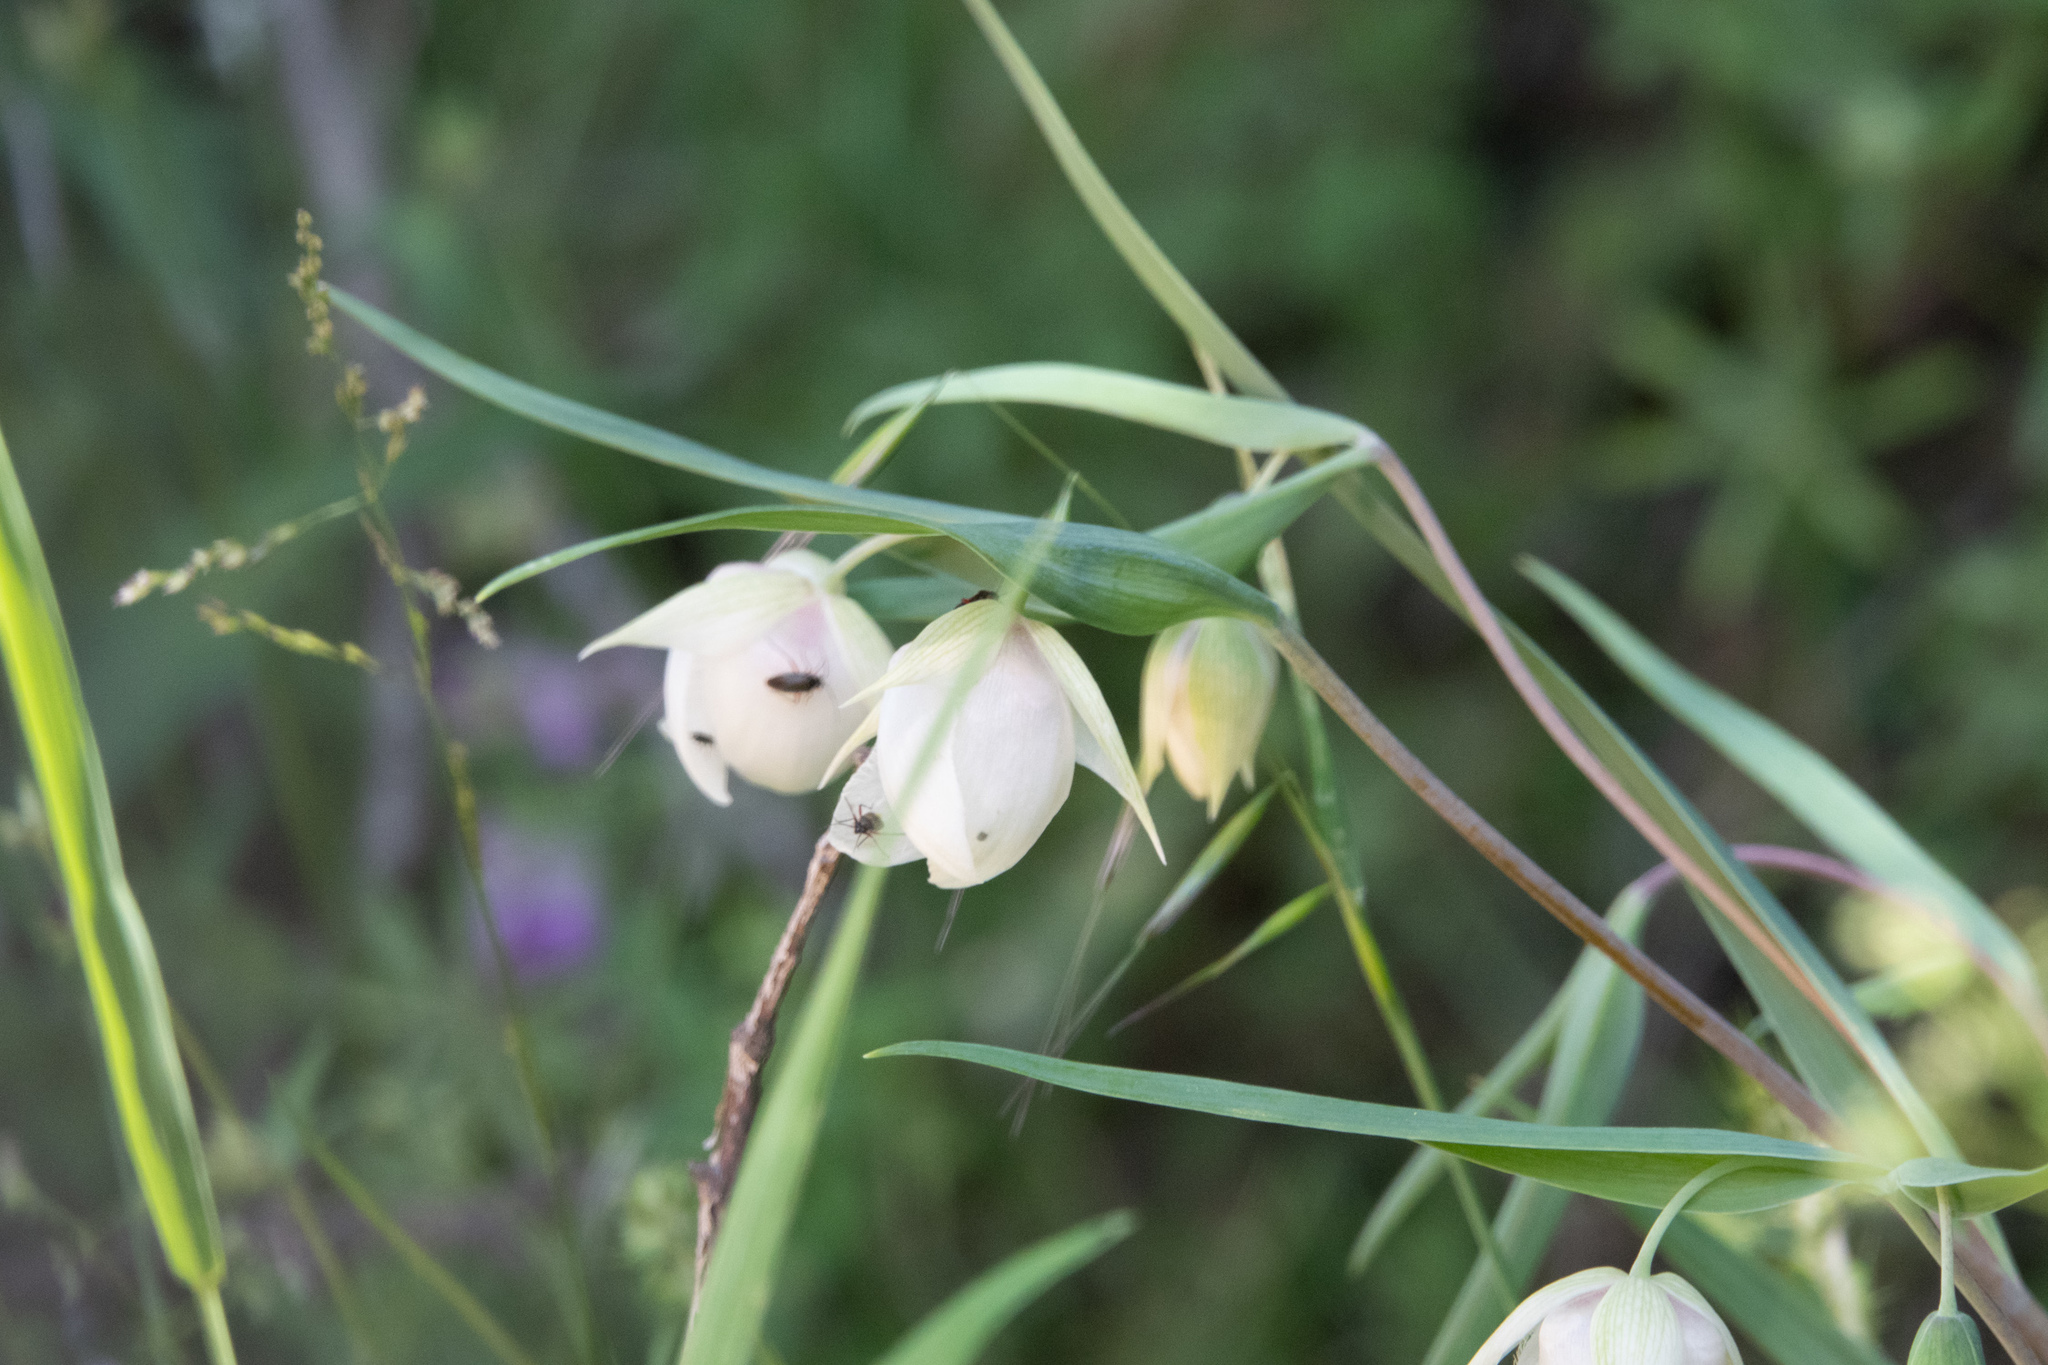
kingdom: Plantae
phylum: Tracheophyta
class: Liliopsida
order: Liliales
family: Liliaceae
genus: Calochortus
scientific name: Calochortus albus
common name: Fairy-lantern
